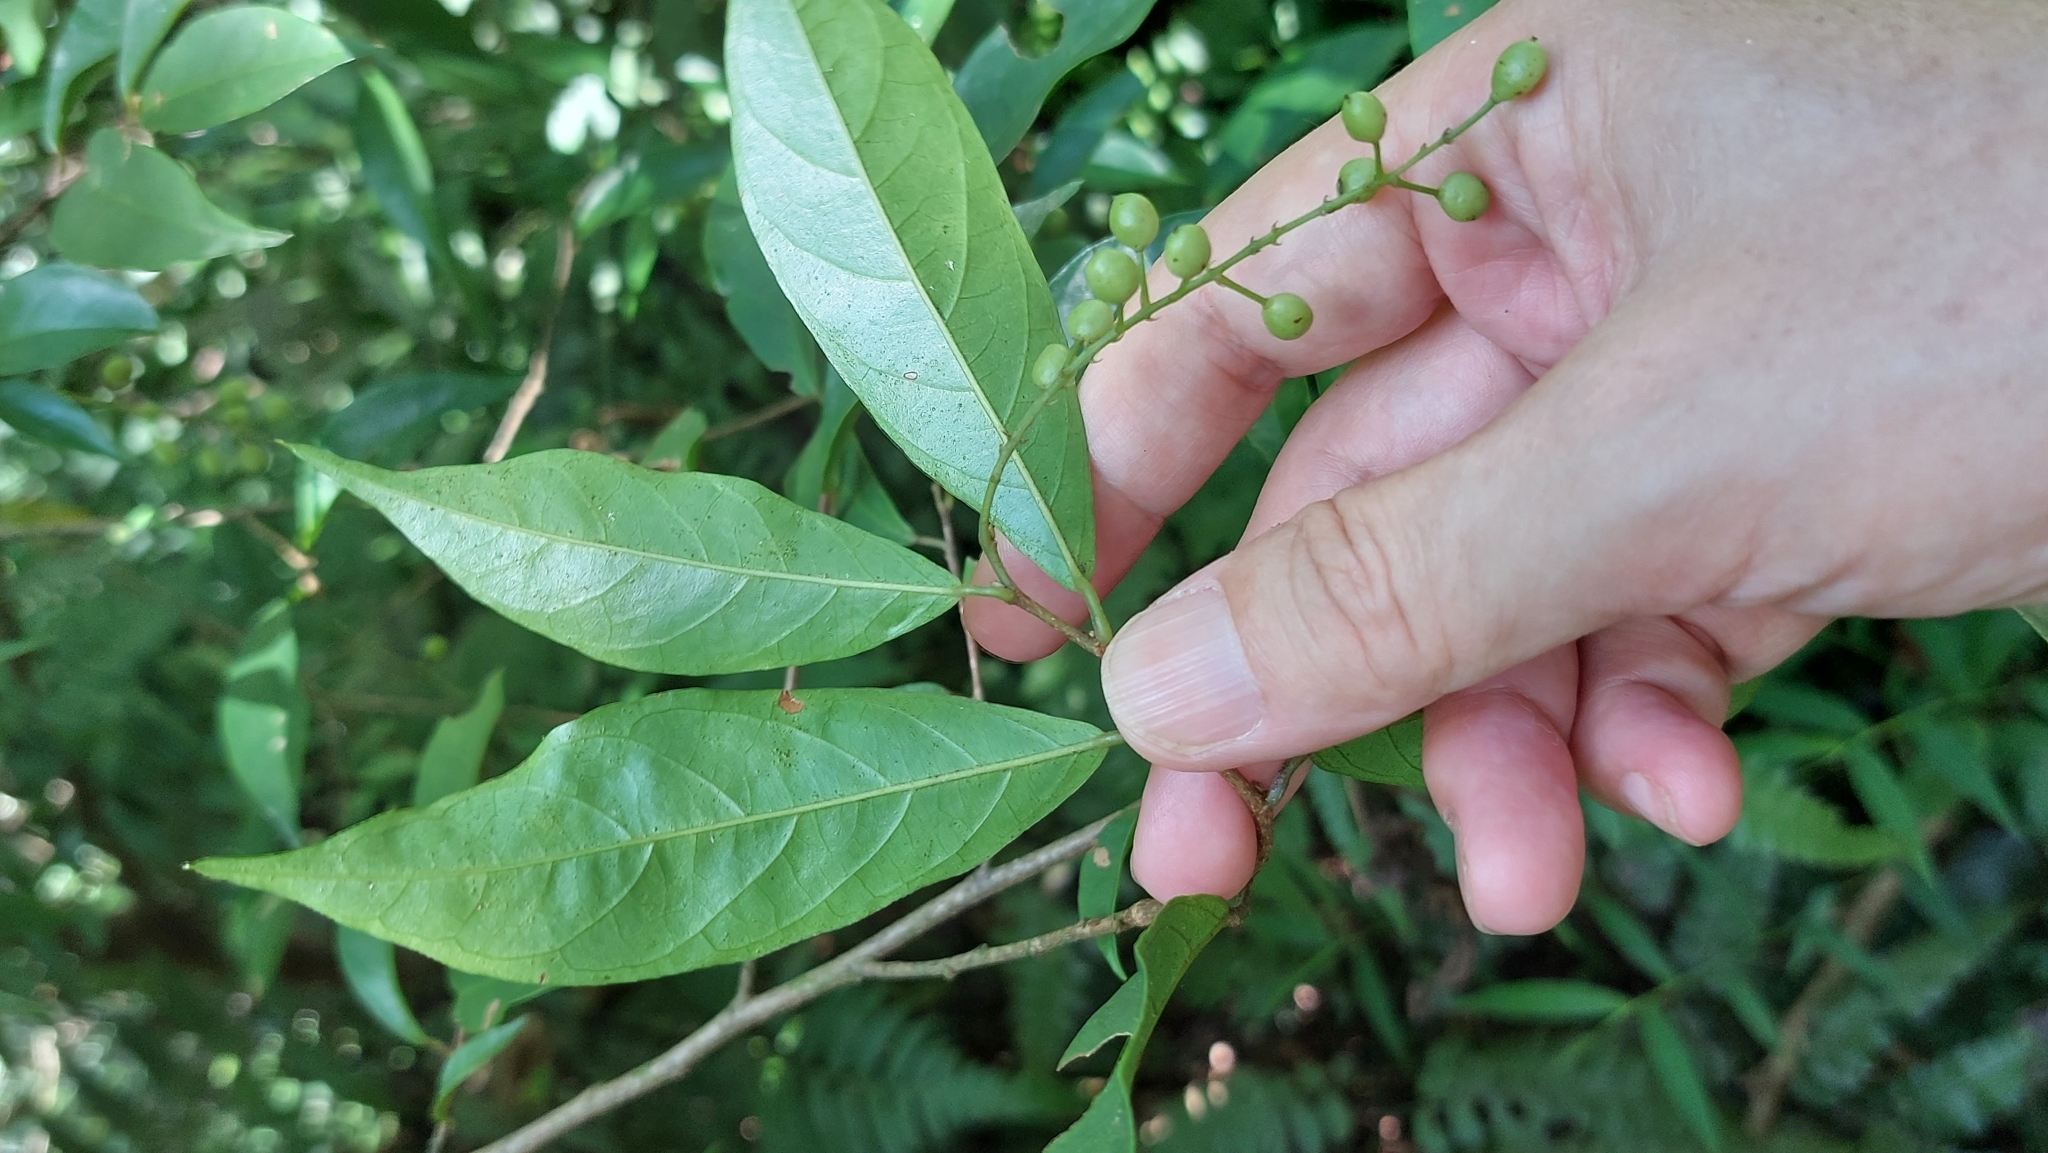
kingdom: Plantae
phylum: Tracheophyta
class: Magnoliopsida
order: Malpighiales
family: Phyllanthaceae
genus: Antidesma
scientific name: Antidesma japonicum
